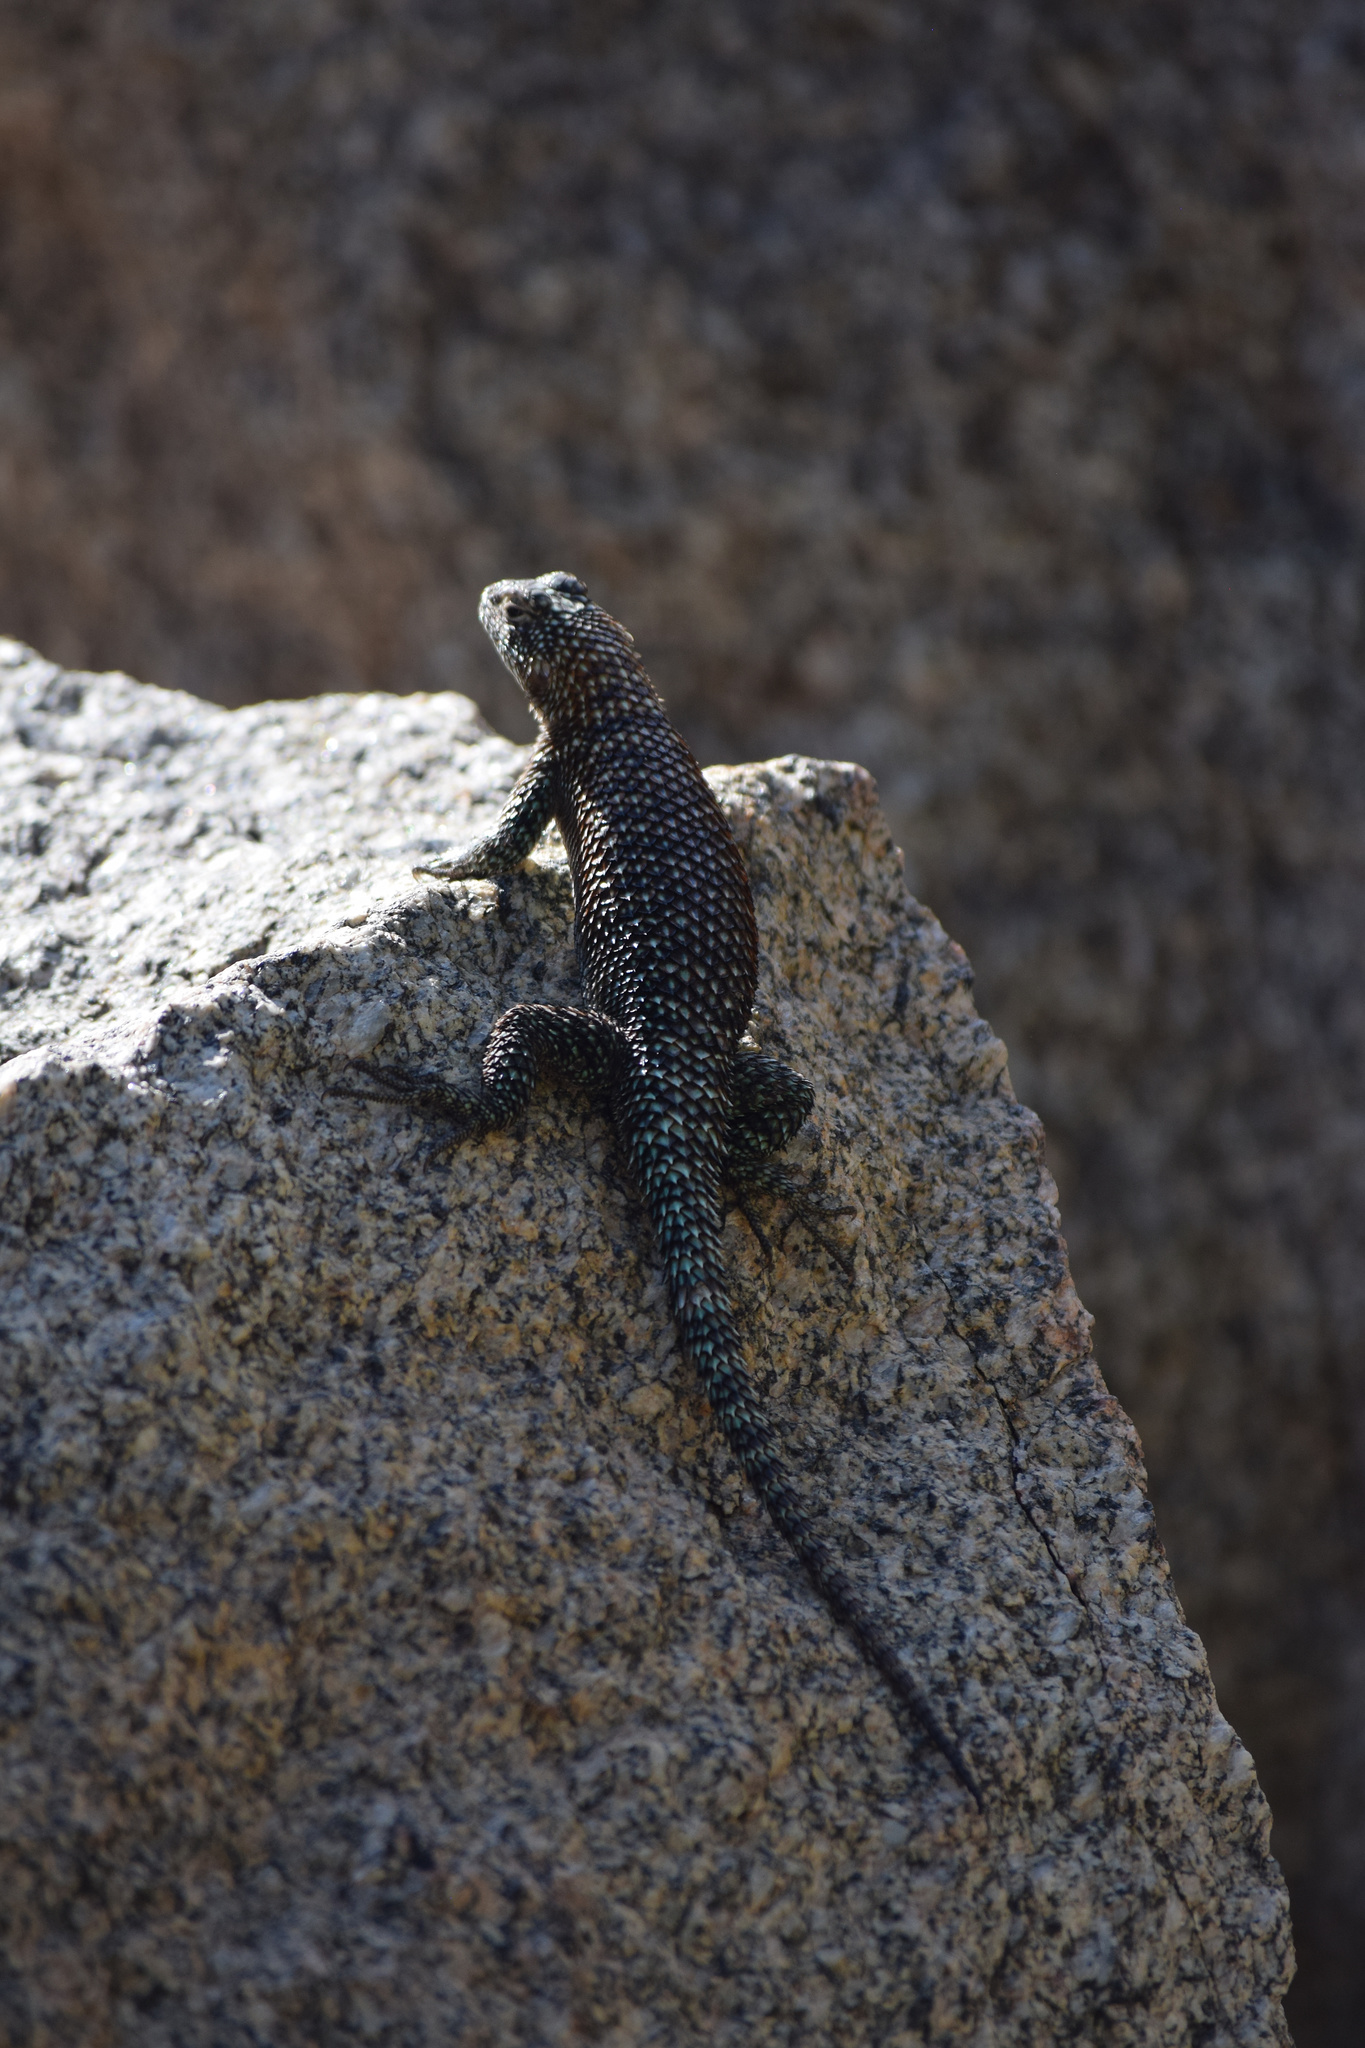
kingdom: Animalia
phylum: Chordata
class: Squamata
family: Phrynosomatidae
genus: Sceloporus
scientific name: Sceloporus orcutti
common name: Granite spiny lizard
